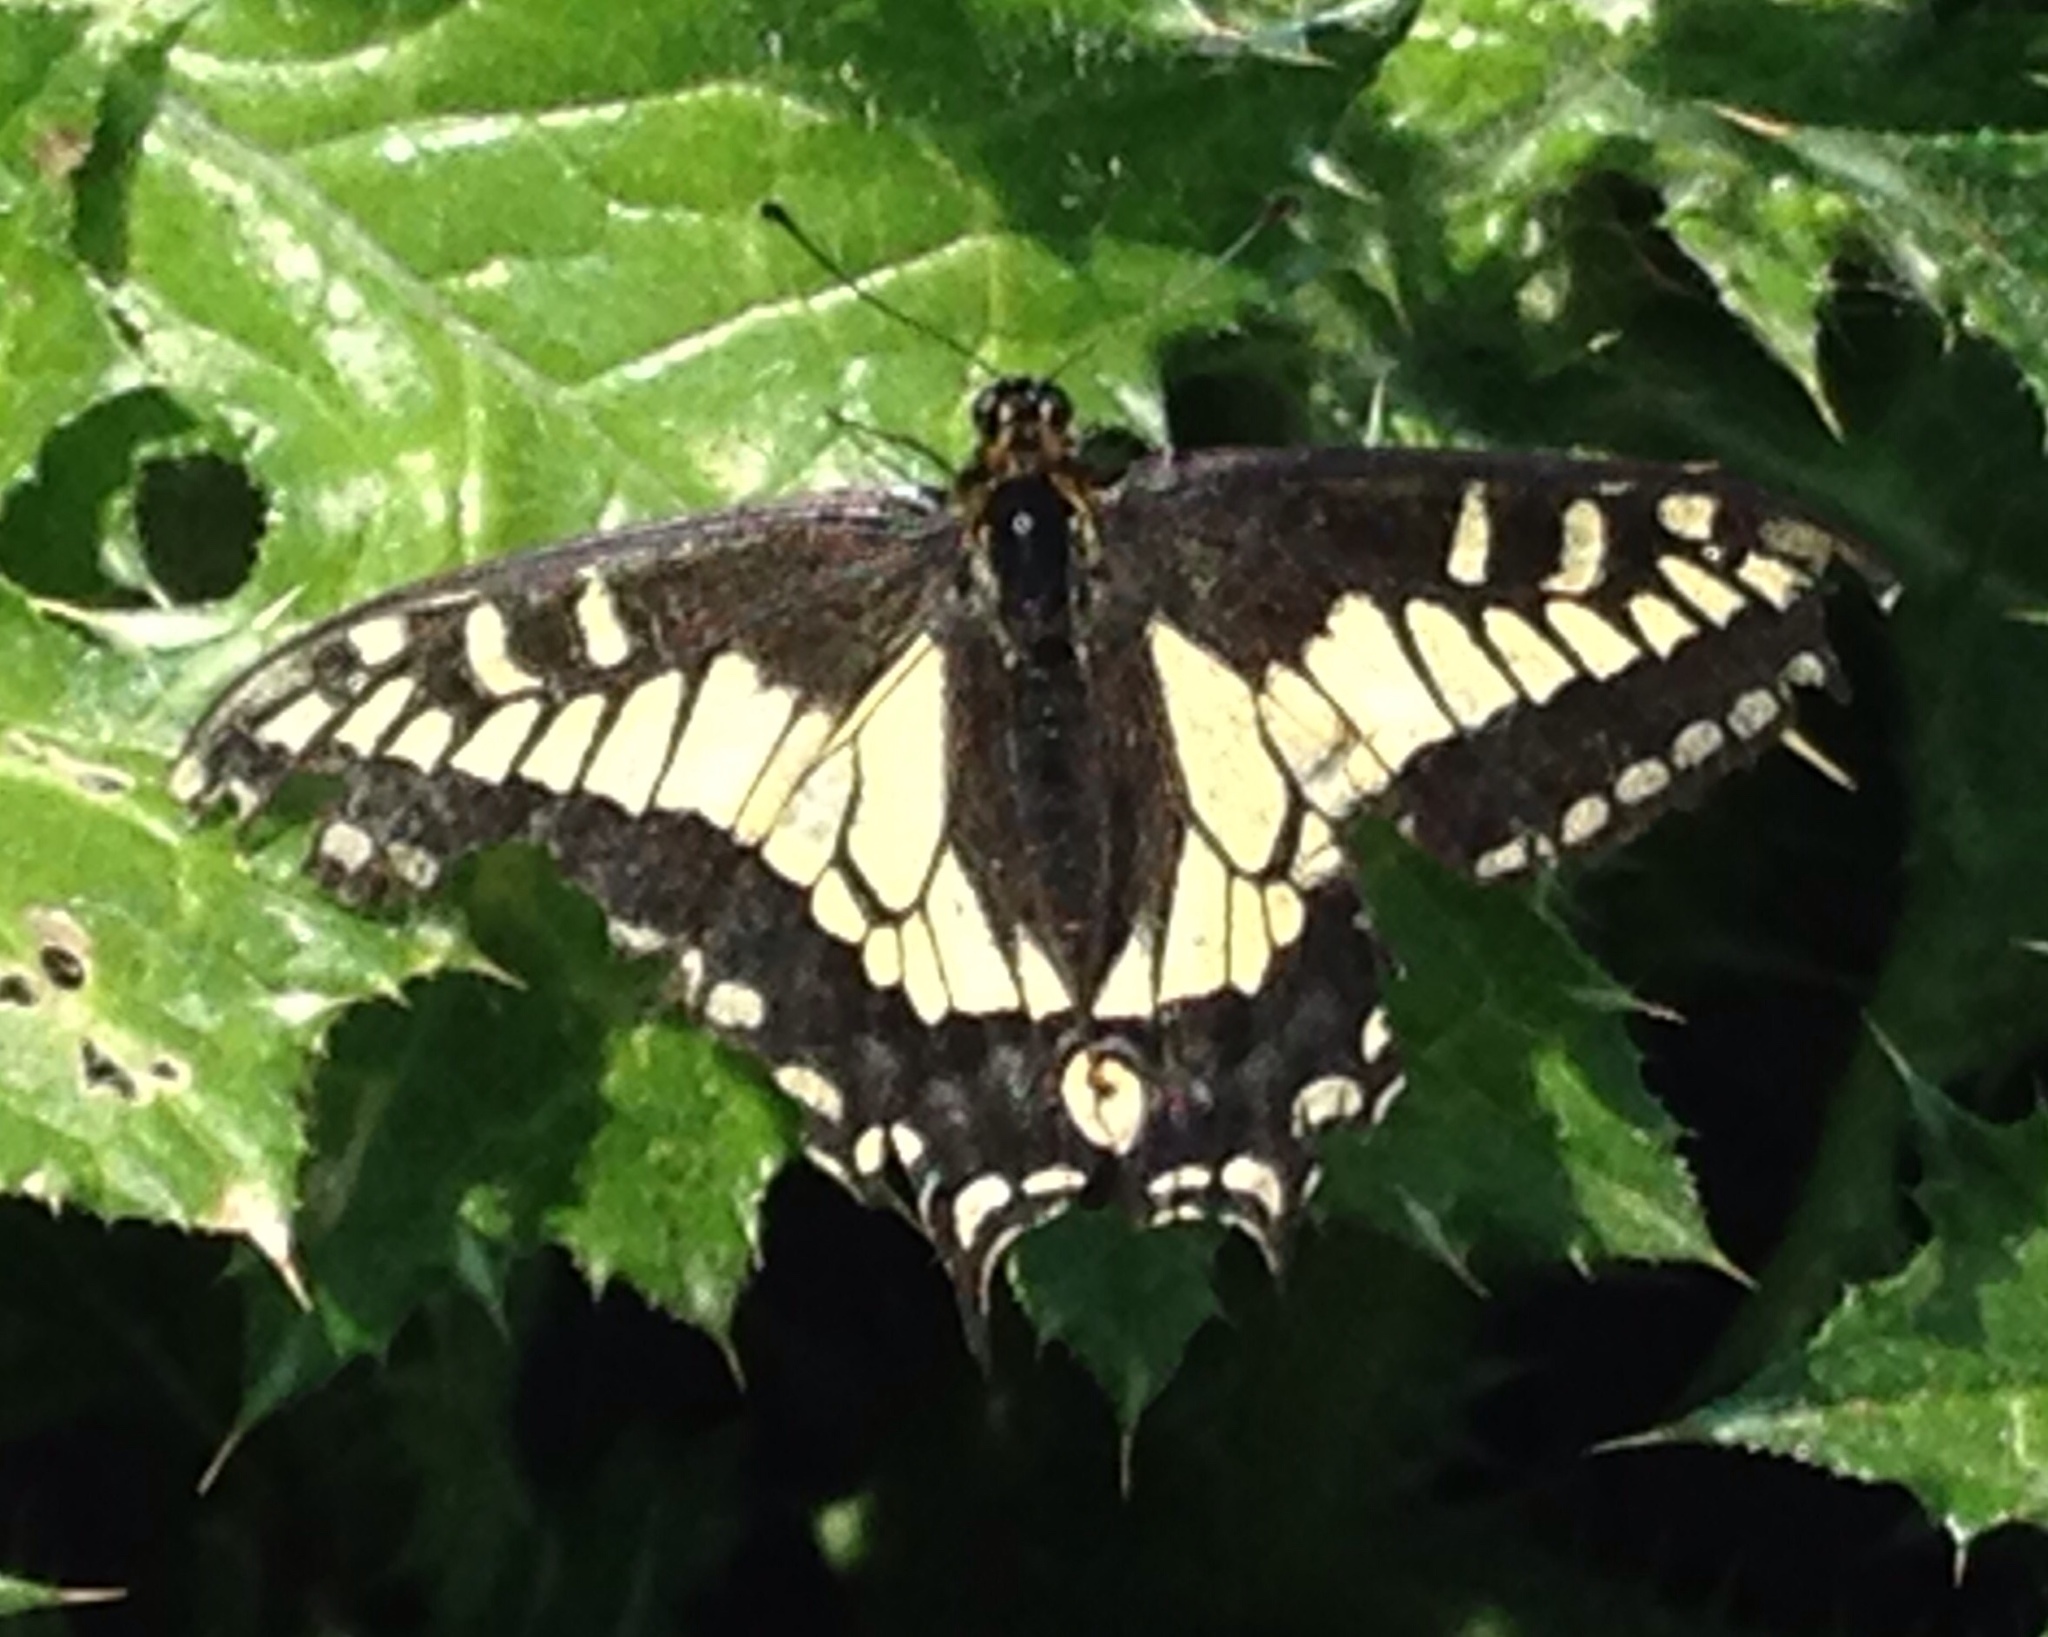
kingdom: Animalia
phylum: Arthropoda
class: Insecta
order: Lepidoptera
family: Papilionidae
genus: Papilio
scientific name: Papilio zelicaon
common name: Anise swallowtail
